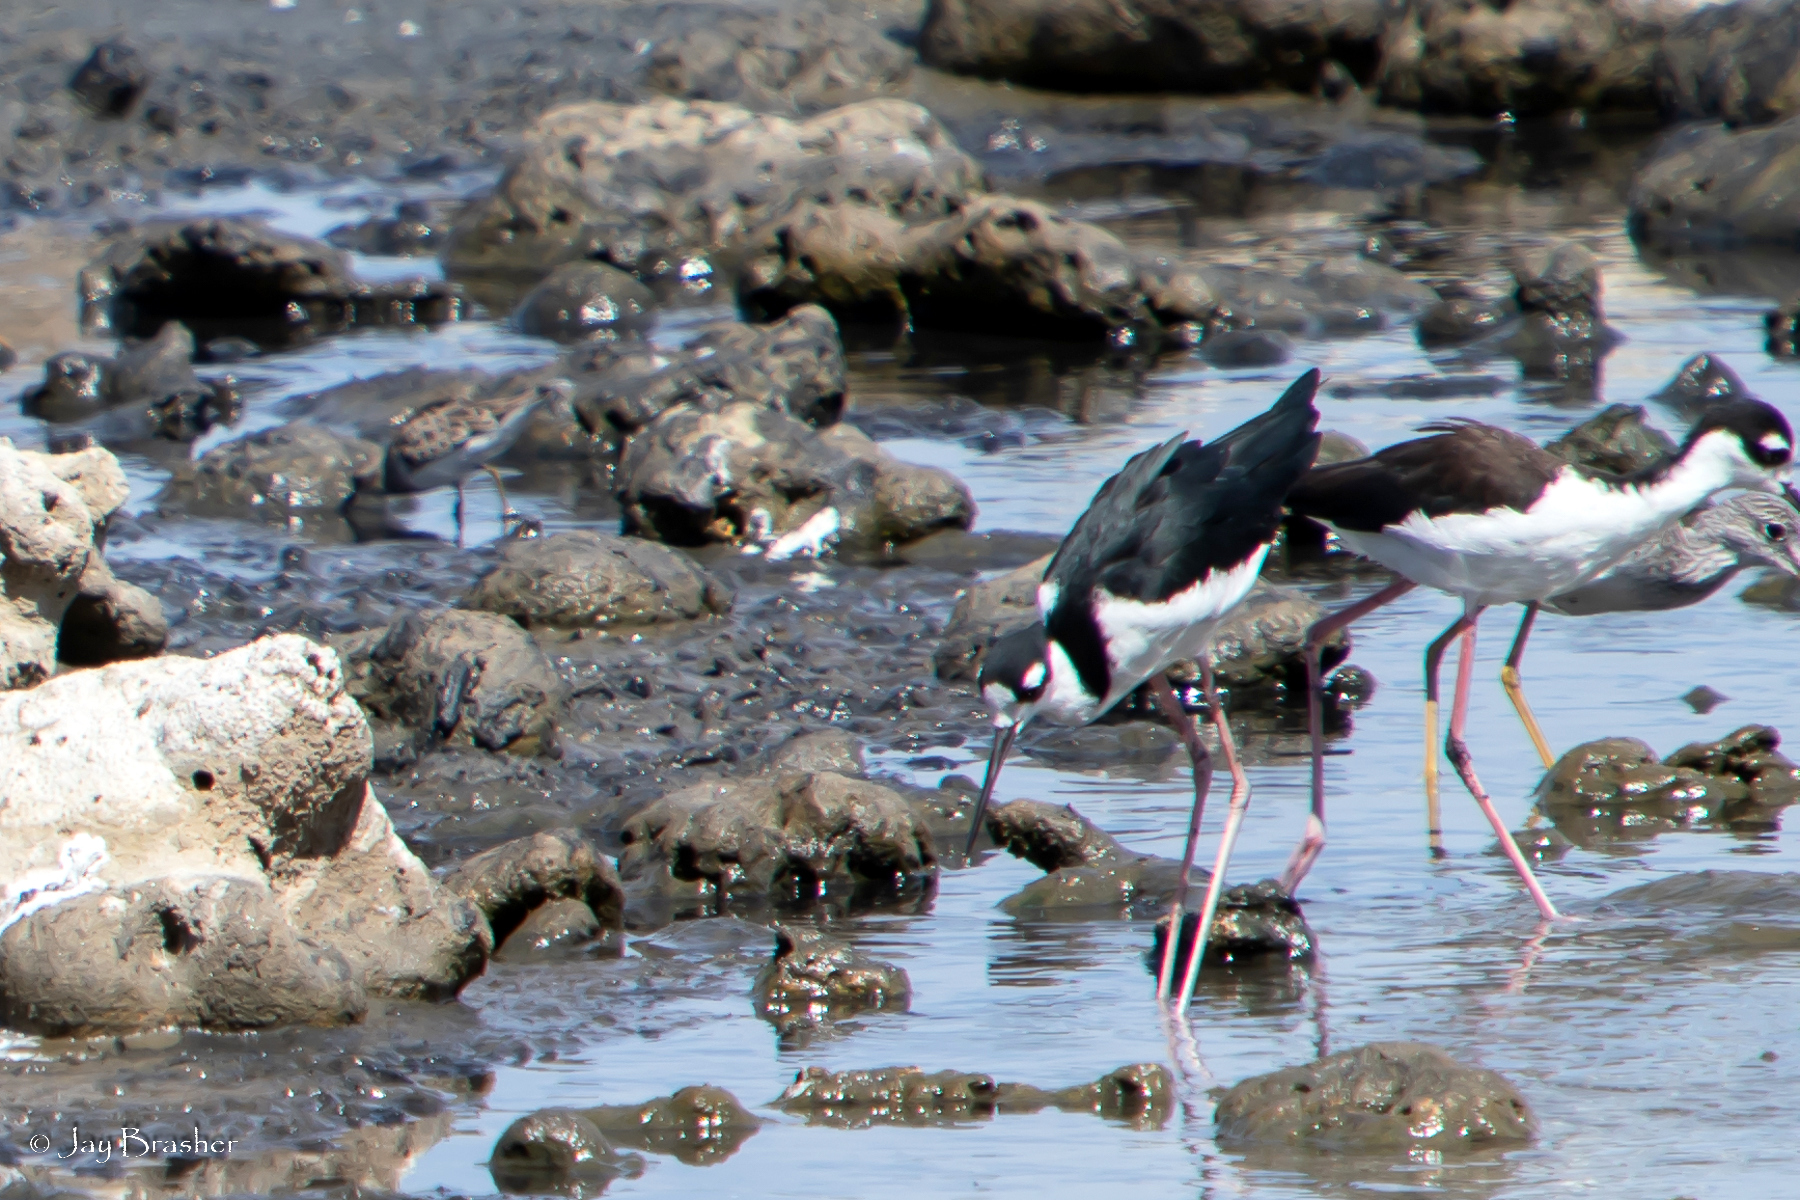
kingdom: Animalia
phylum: Chordata
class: Aves
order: Charadriiformes
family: Recurvirostridae
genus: Himantopus
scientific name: Himantopus mexicanus
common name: Black-necked stilt
